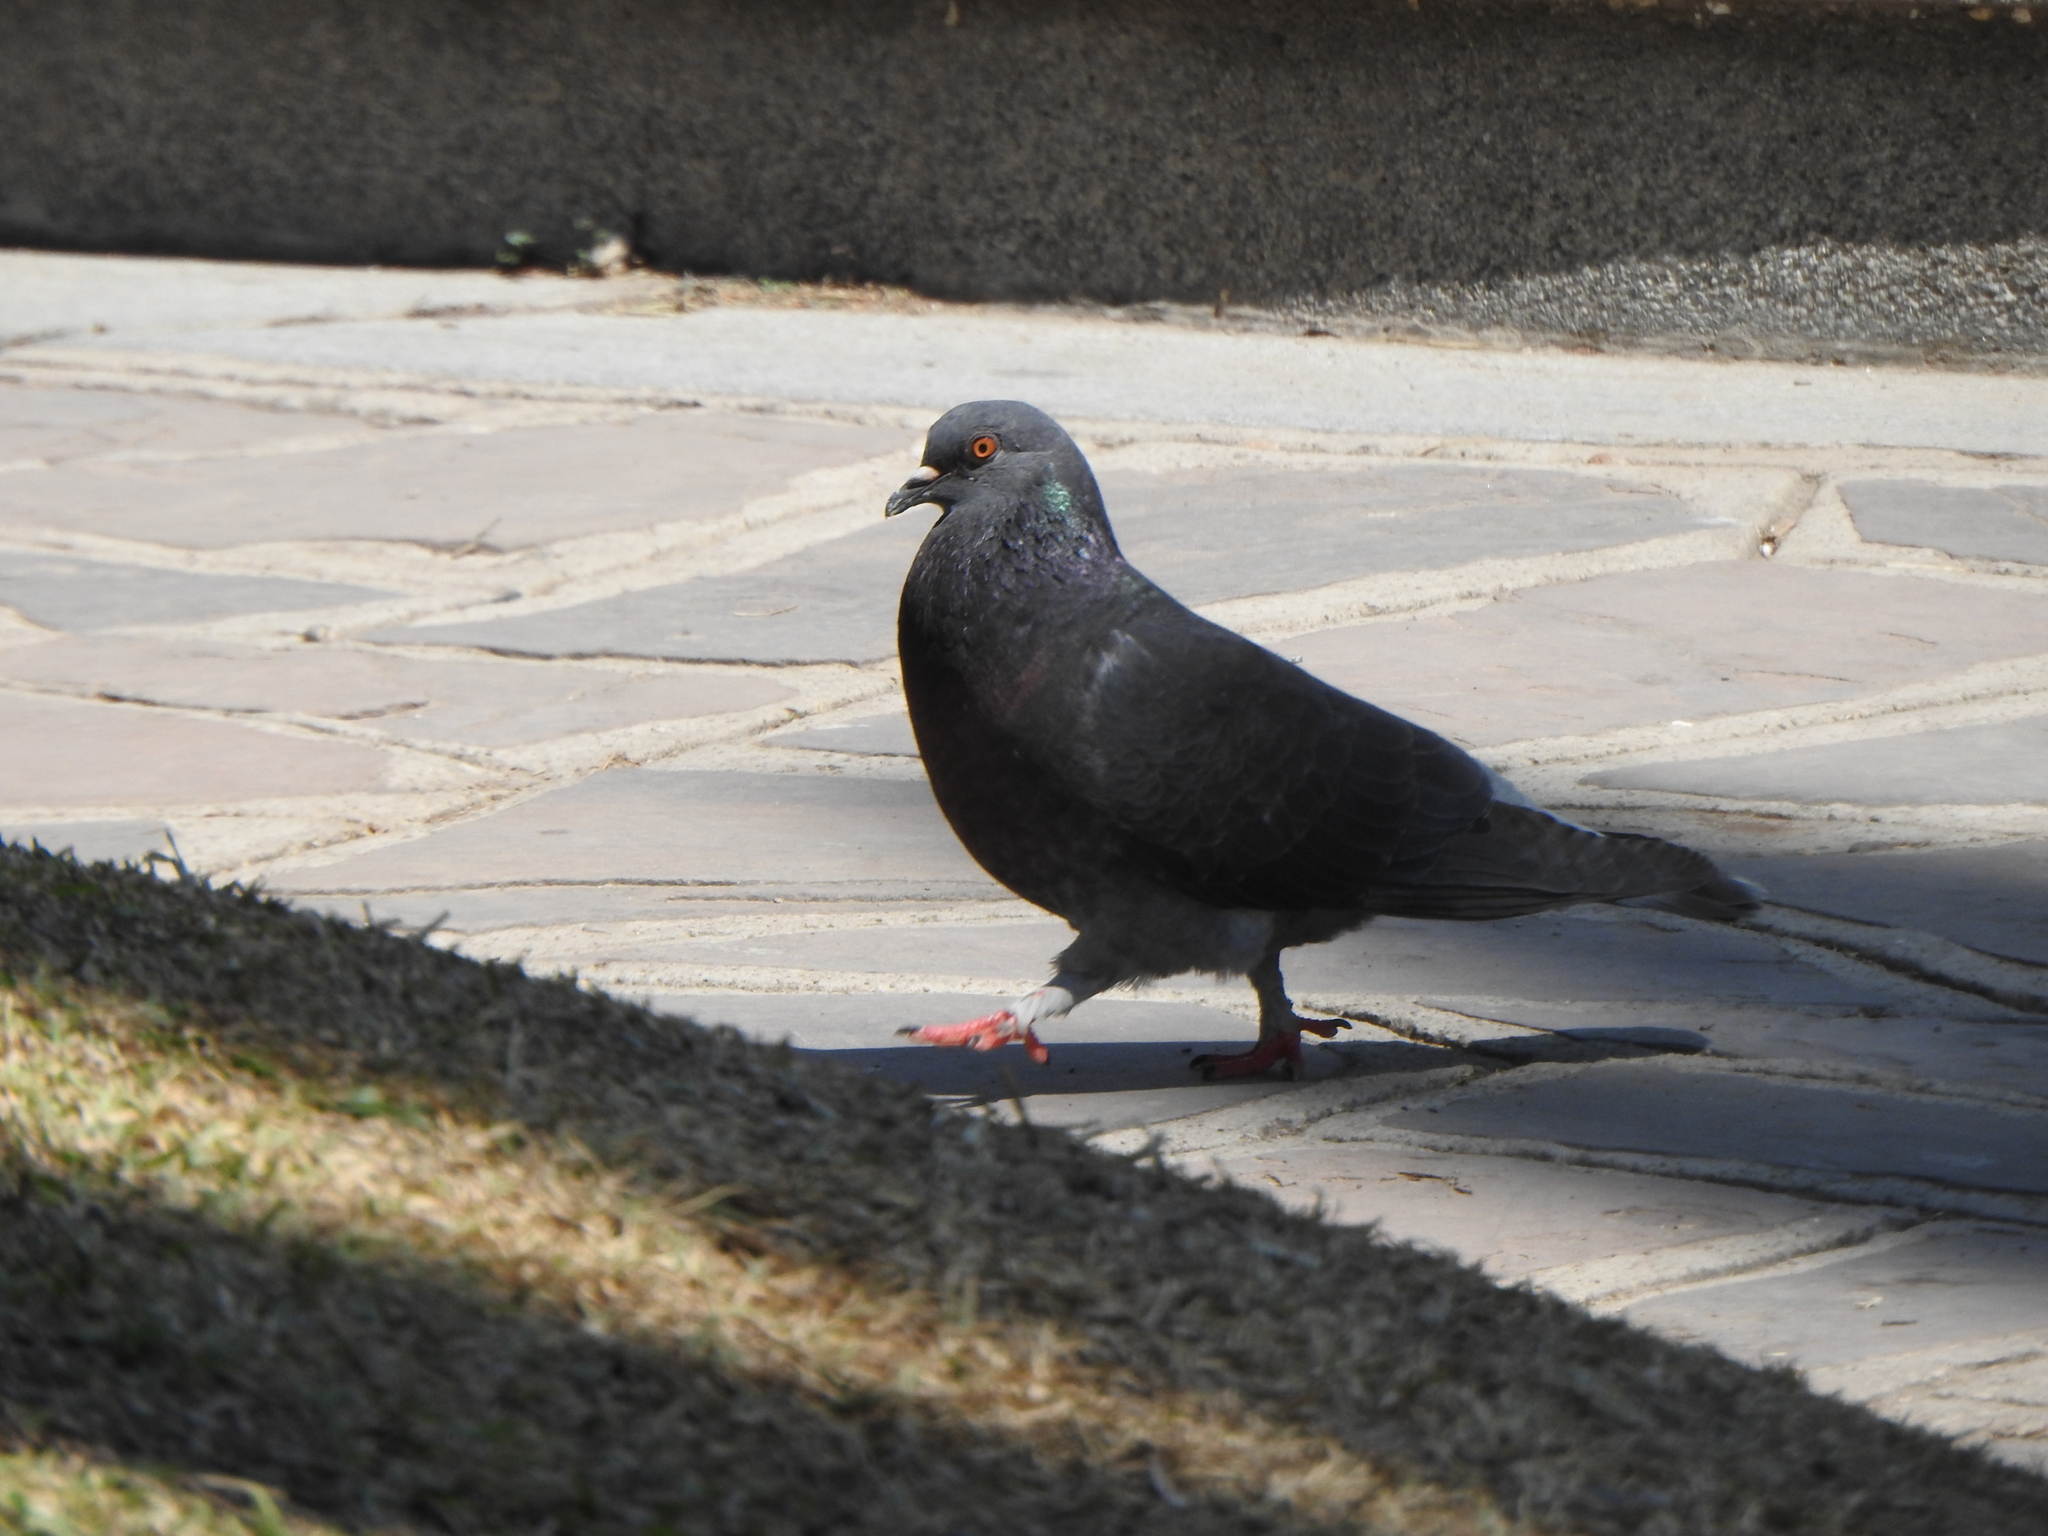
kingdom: Animalia
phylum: Chordata
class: Aves
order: Columbiformes
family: Columbidae
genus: Columba
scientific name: Columba livia
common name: Rock pigeon
